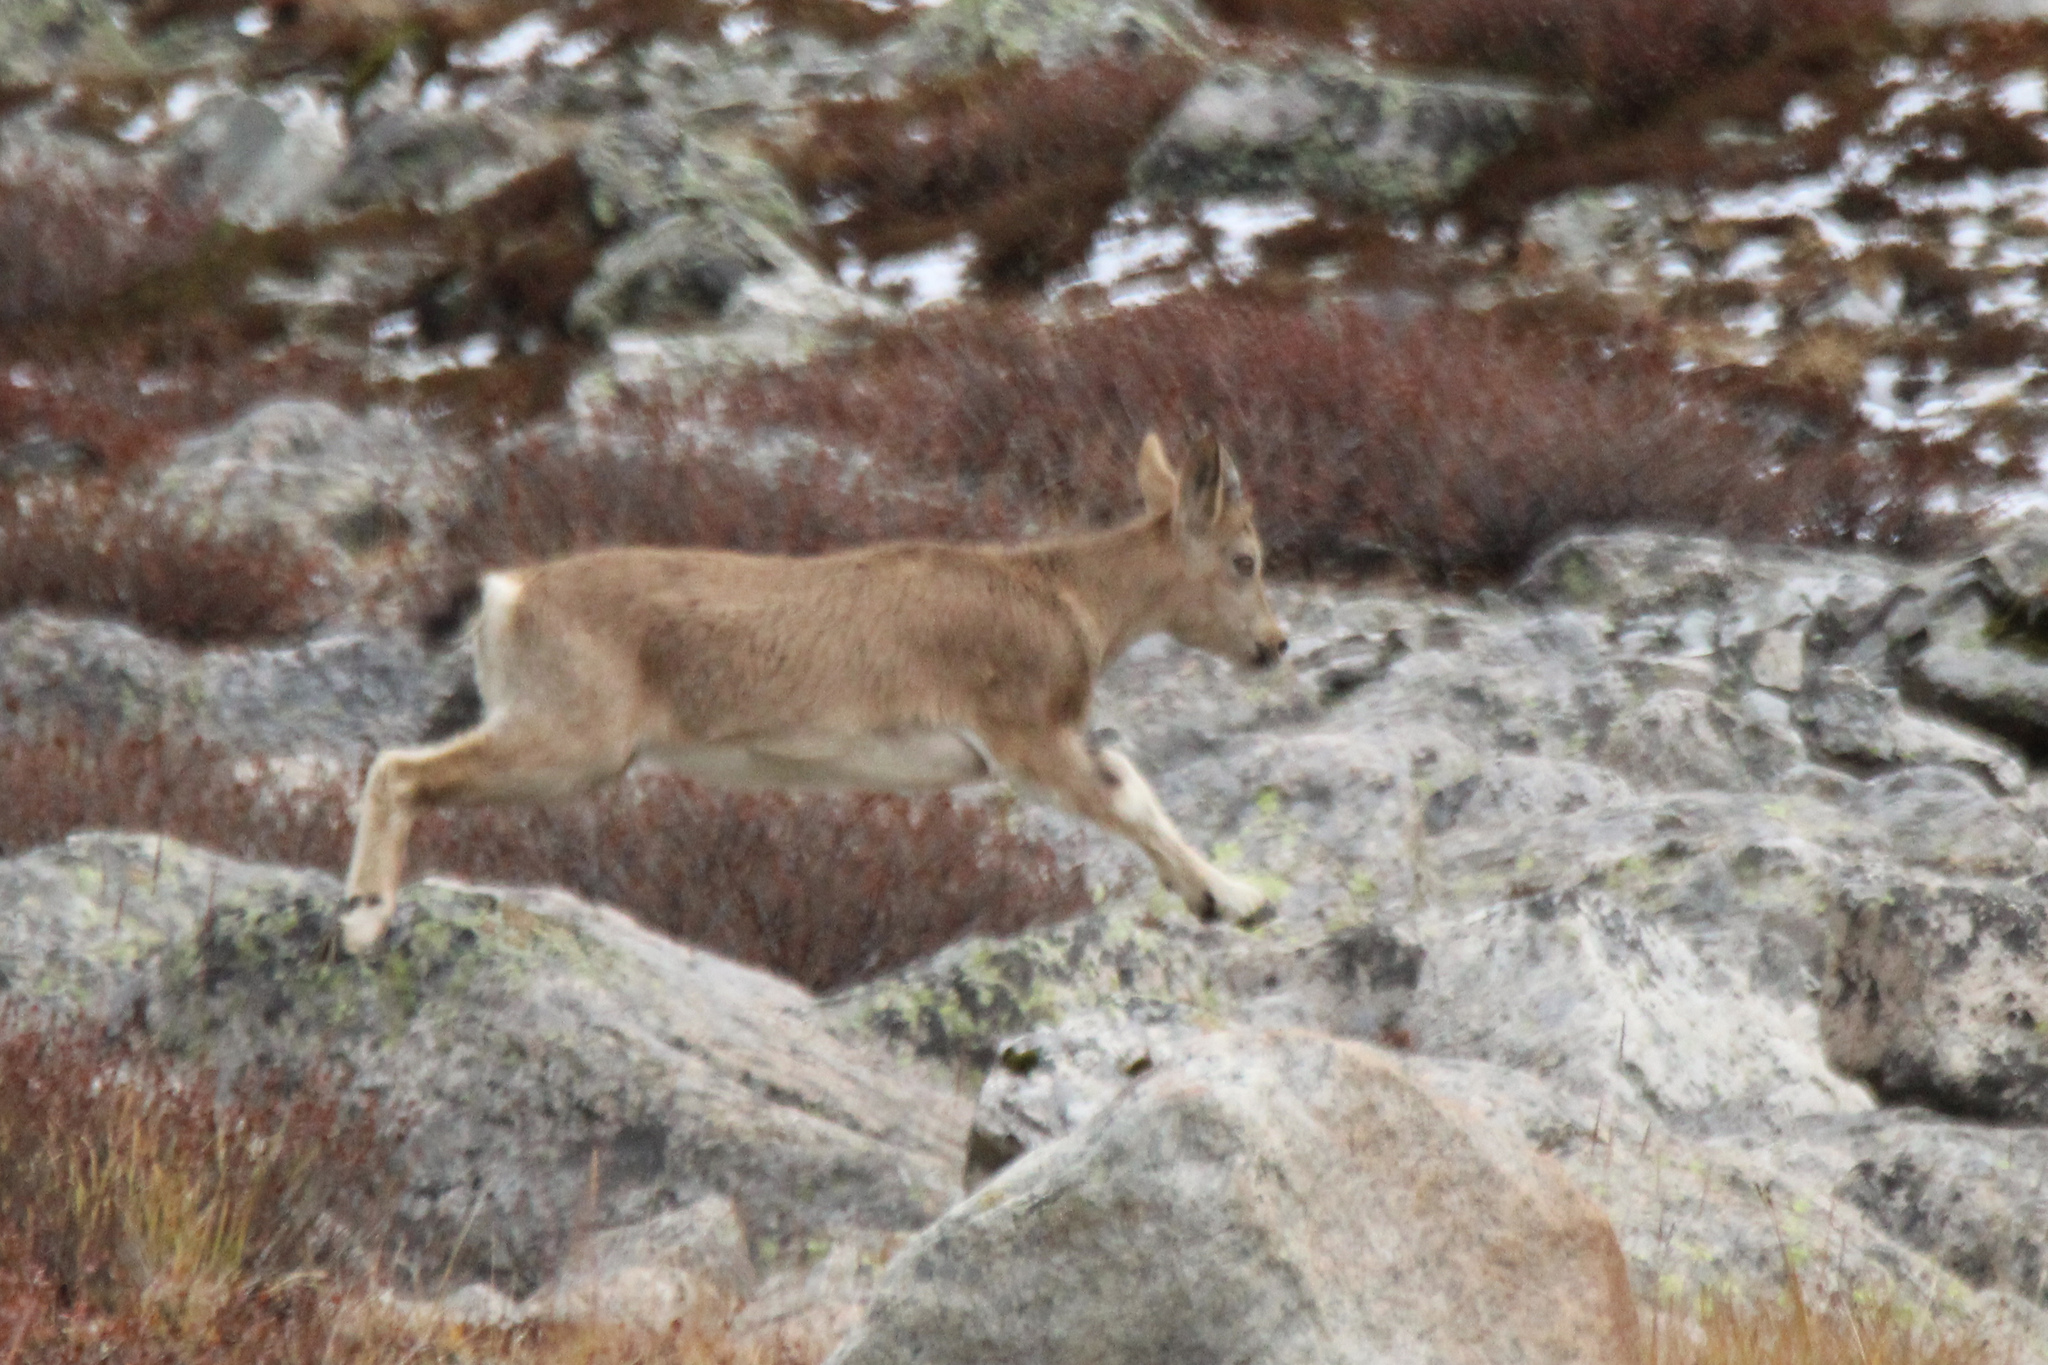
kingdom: Animalia
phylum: Chordata
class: Mammalia
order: Artiodactyla
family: Bovidae
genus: Capra
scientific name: Capra sibirica
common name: Siberian ibex
